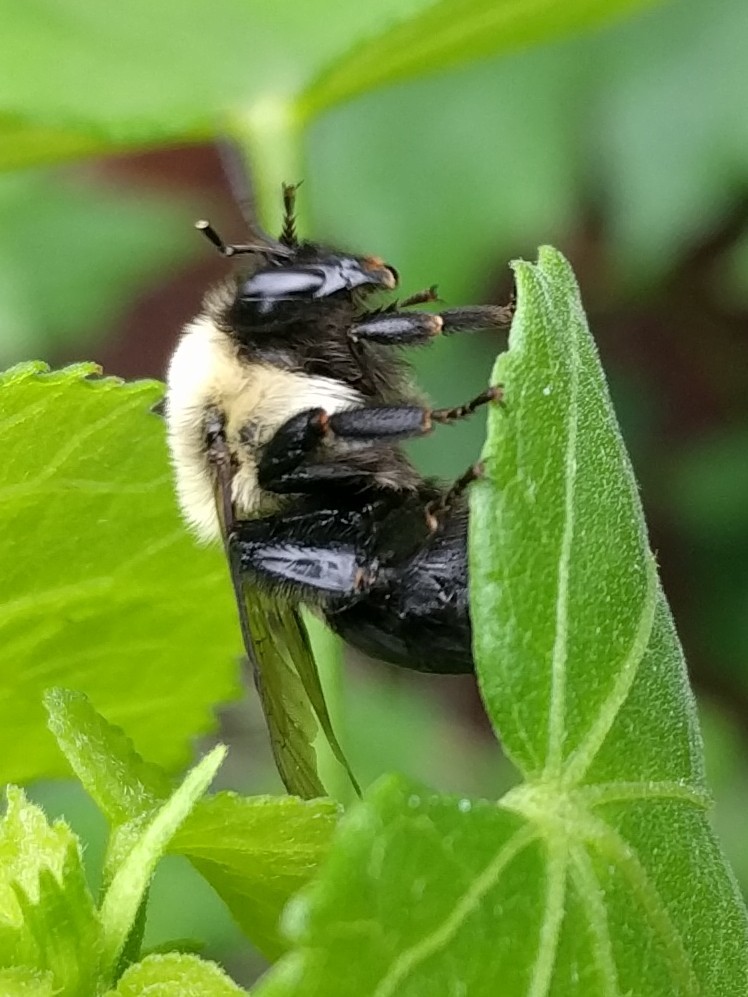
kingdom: Animalia
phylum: Arthropoda
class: Insecta
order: Hymenoptera
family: Apidae
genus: Bombus
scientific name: Bombus impatiens
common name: Common eastern bumble bee
